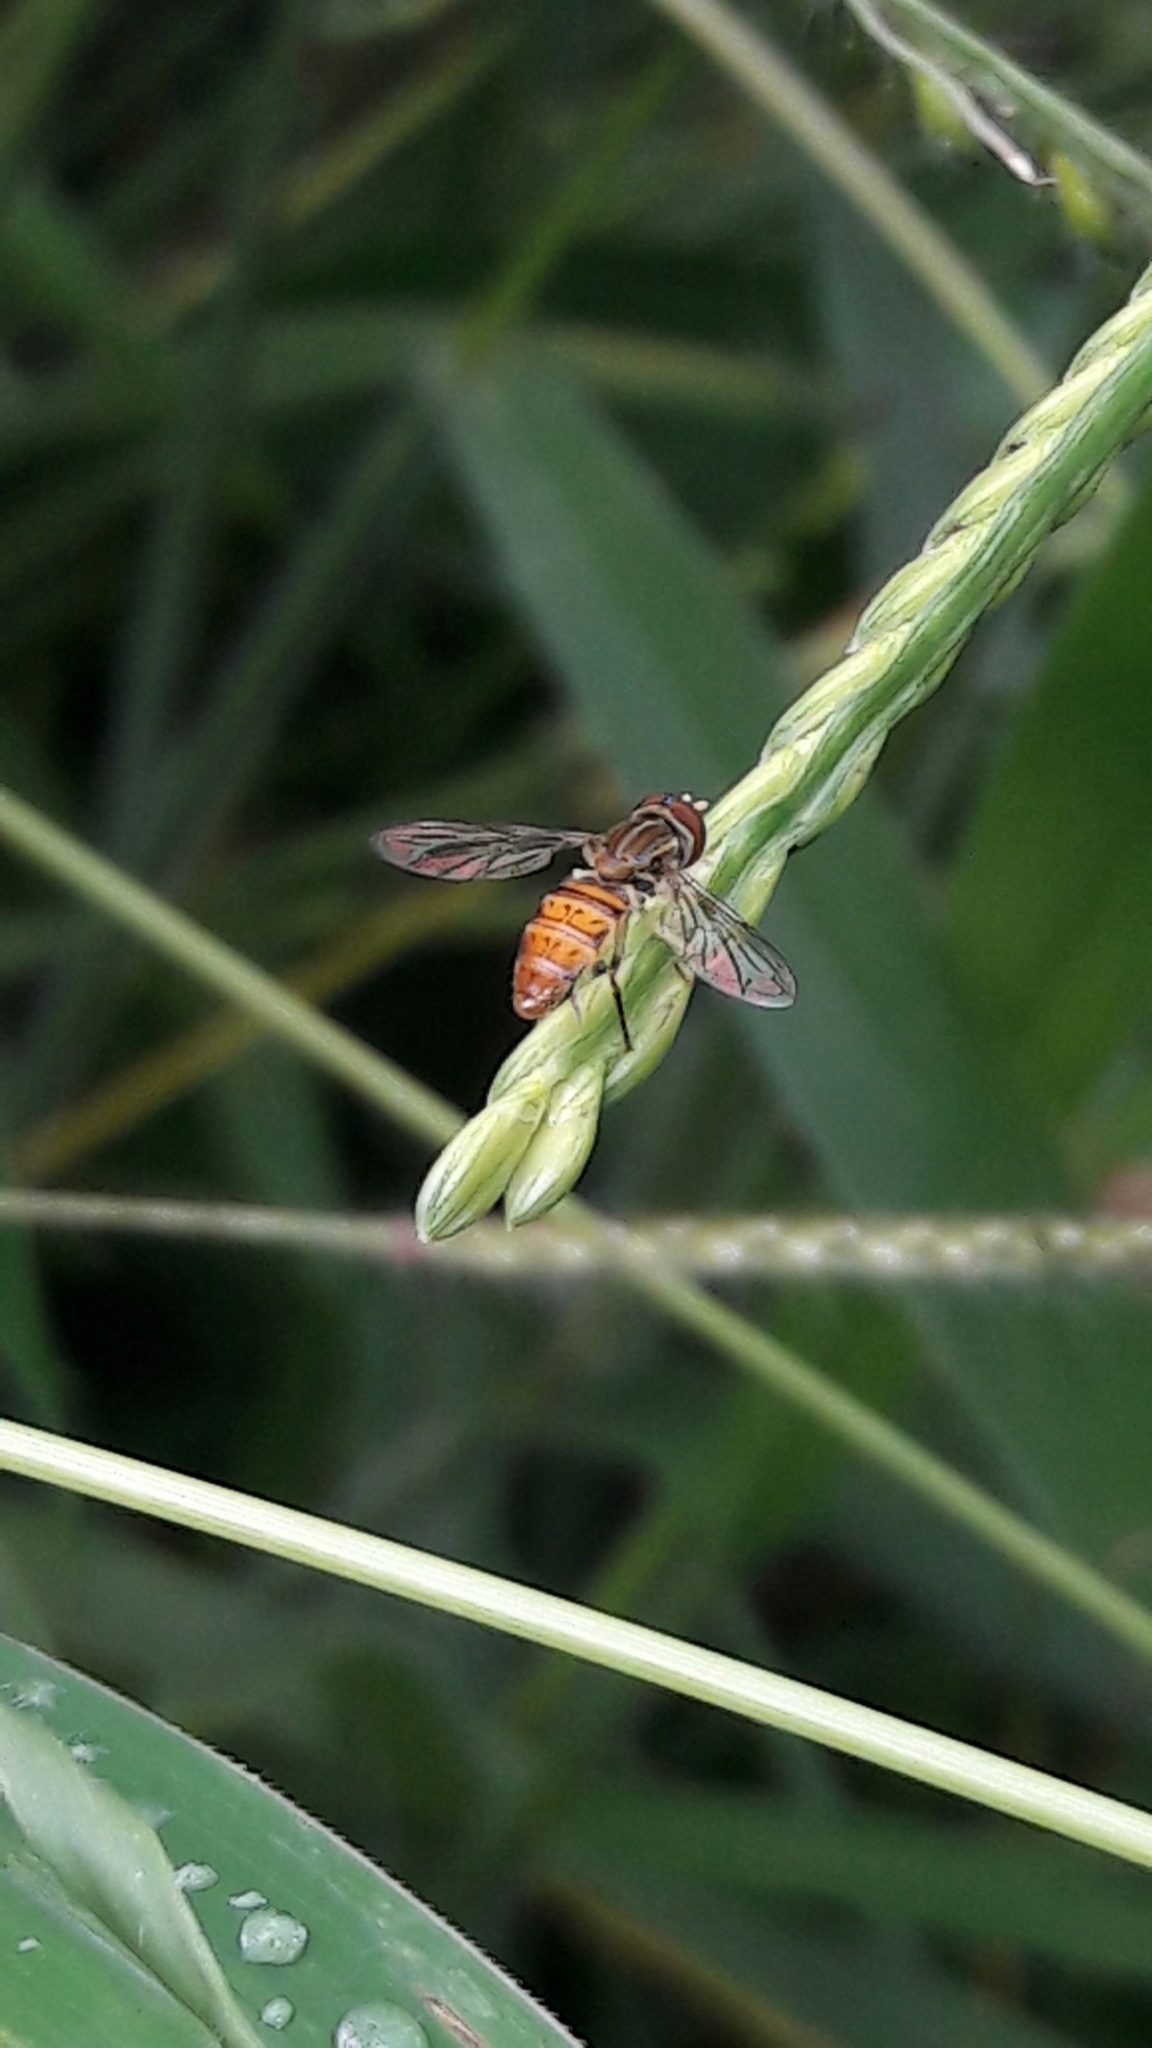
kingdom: Animalia
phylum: Arthropoda
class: Insecta
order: Diptera
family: Syrphidae
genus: Toxomerus
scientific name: Toxomerus pulchellus
